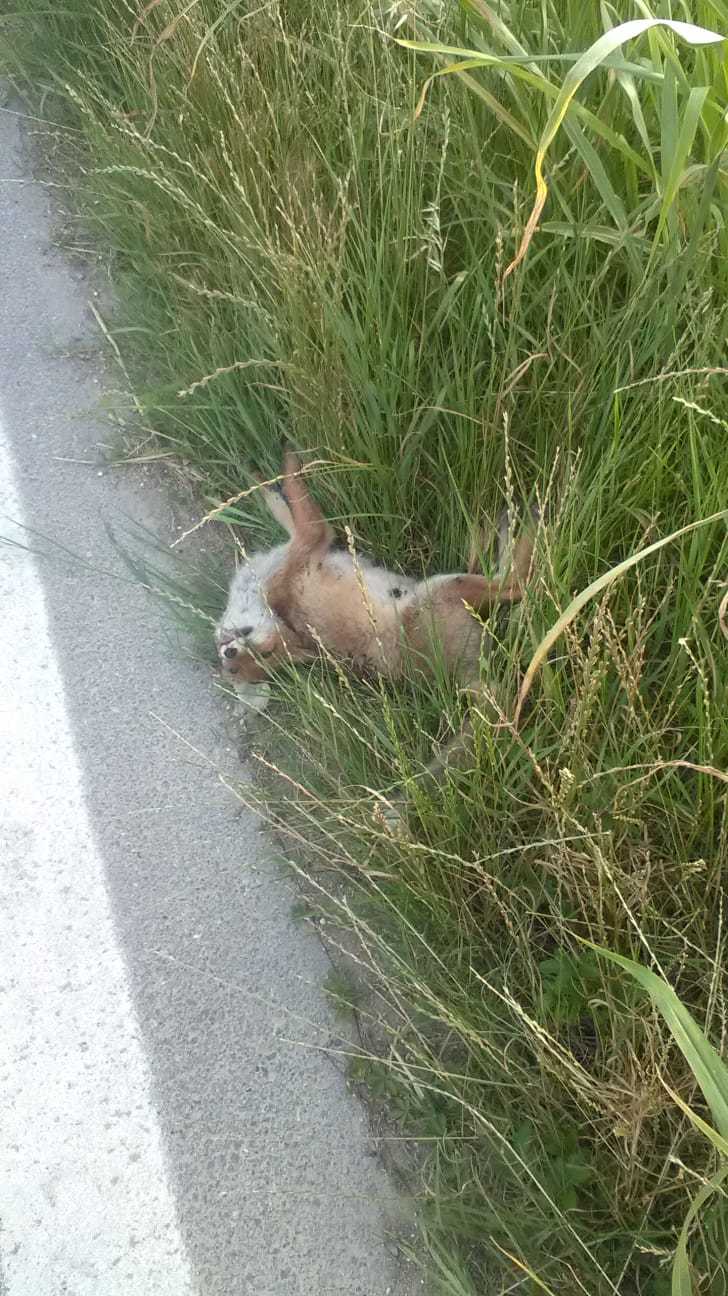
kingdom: Animalia
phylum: Chordata
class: Mammalia
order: Carnivora
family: Canidae
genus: Vulpes
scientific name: Vulpes vulpes
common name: Red fox
